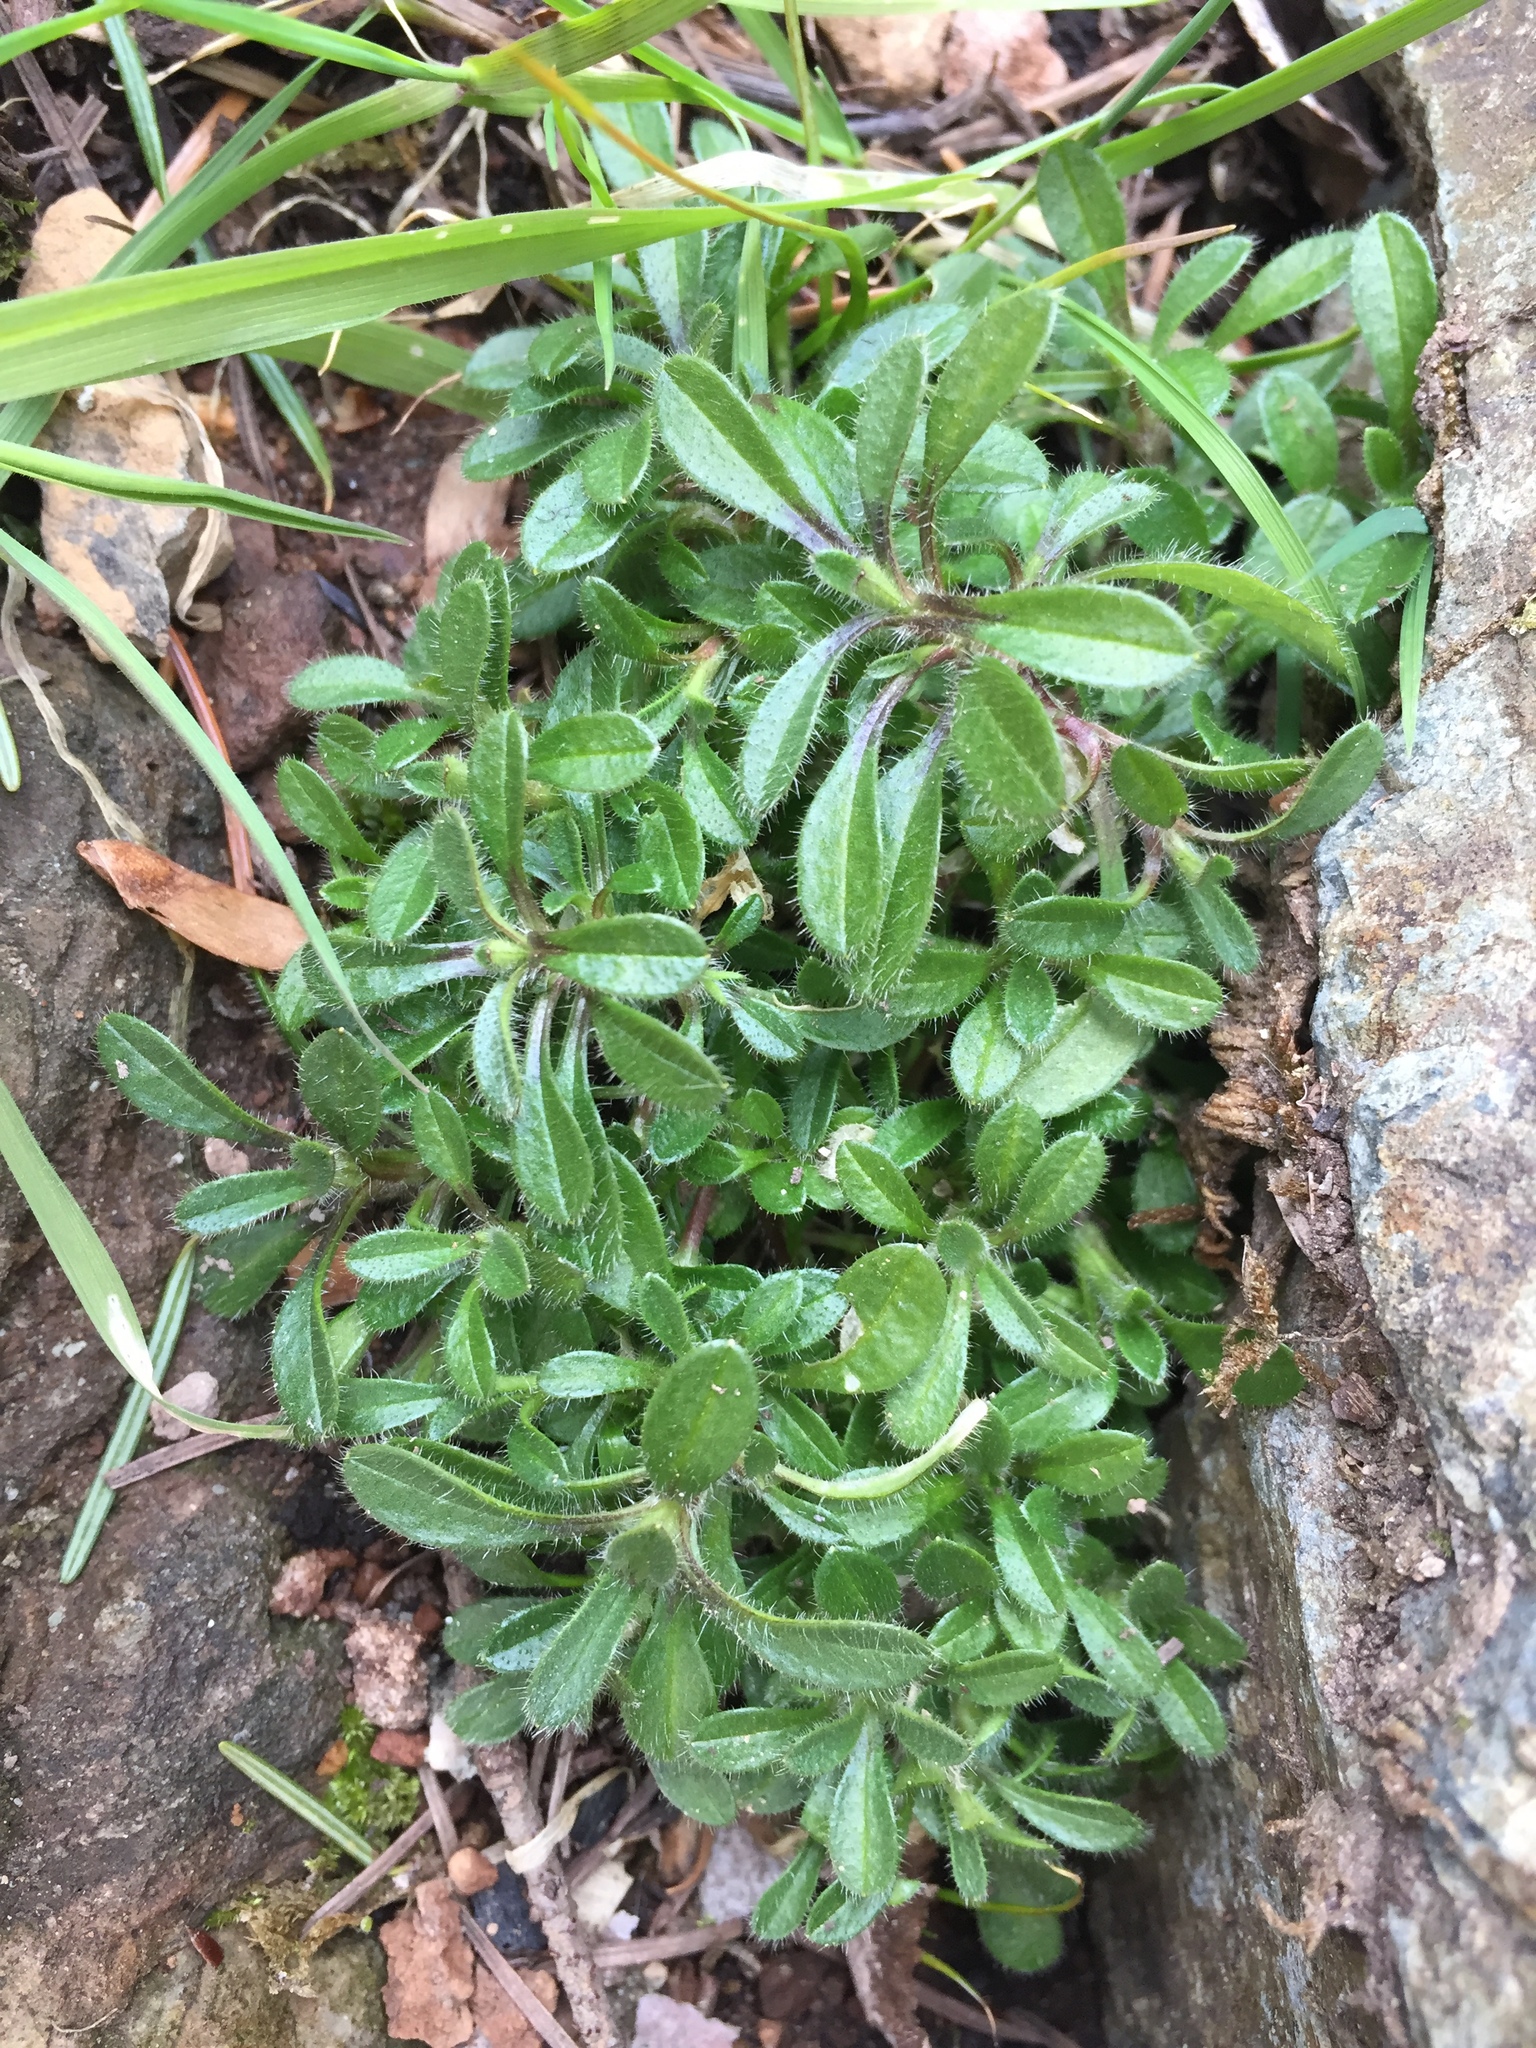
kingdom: Plantae
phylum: Tracheophyta
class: Magnoliopsida
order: Caryophyllales
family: Caryophyllaceae
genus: Cerastium
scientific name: Cerastium fontanum
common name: Common mouse-ear
